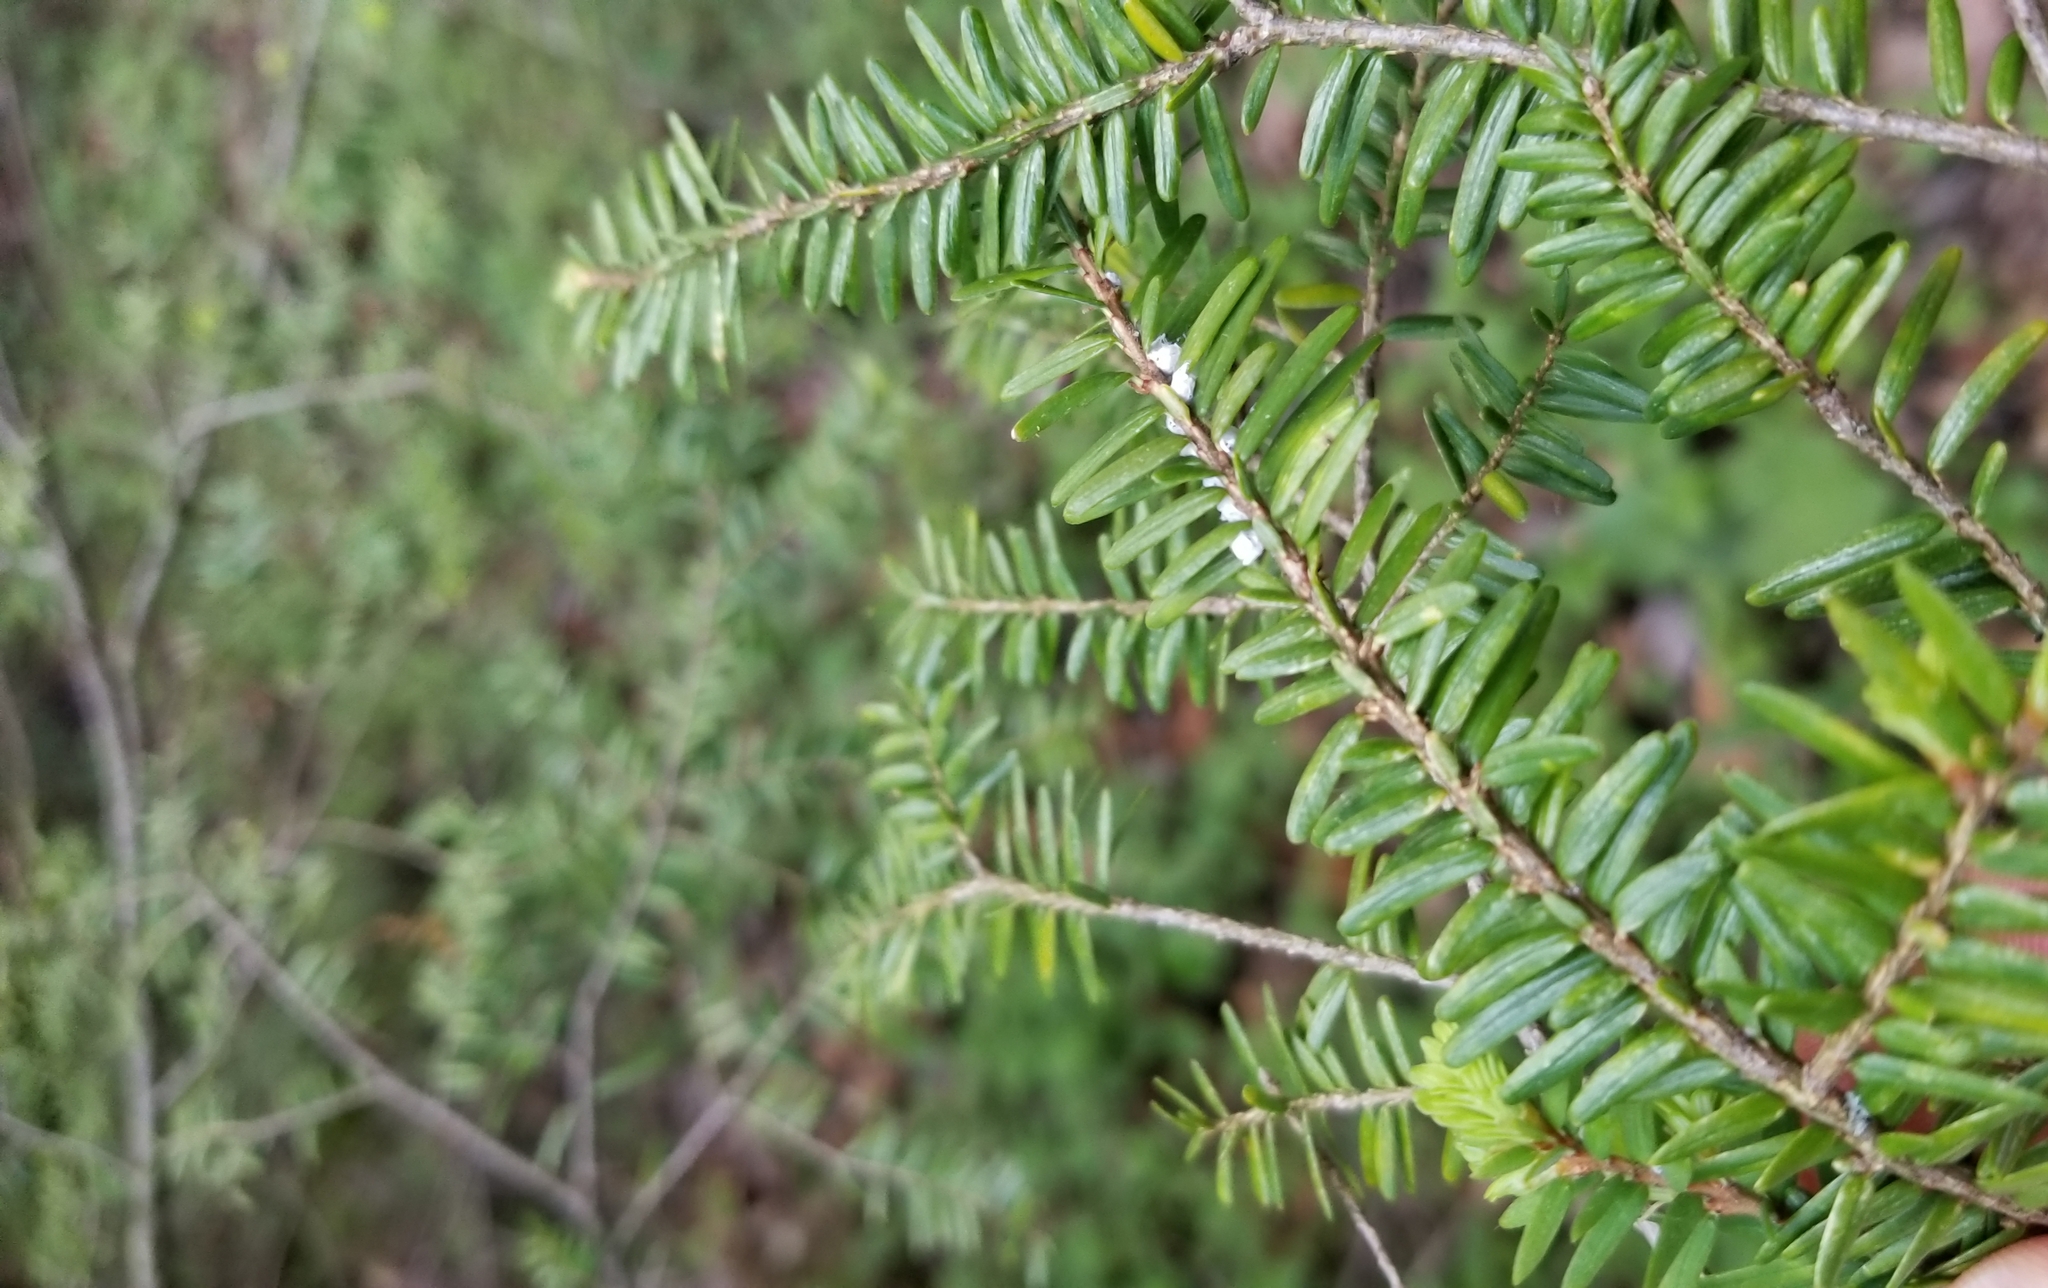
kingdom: Animalia
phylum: Arthropoda
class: Insecta
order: Hemiptera
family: Adelgidae
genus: Adelges
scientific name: Adelges tsugae
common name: Hemlock woolly adelgid
